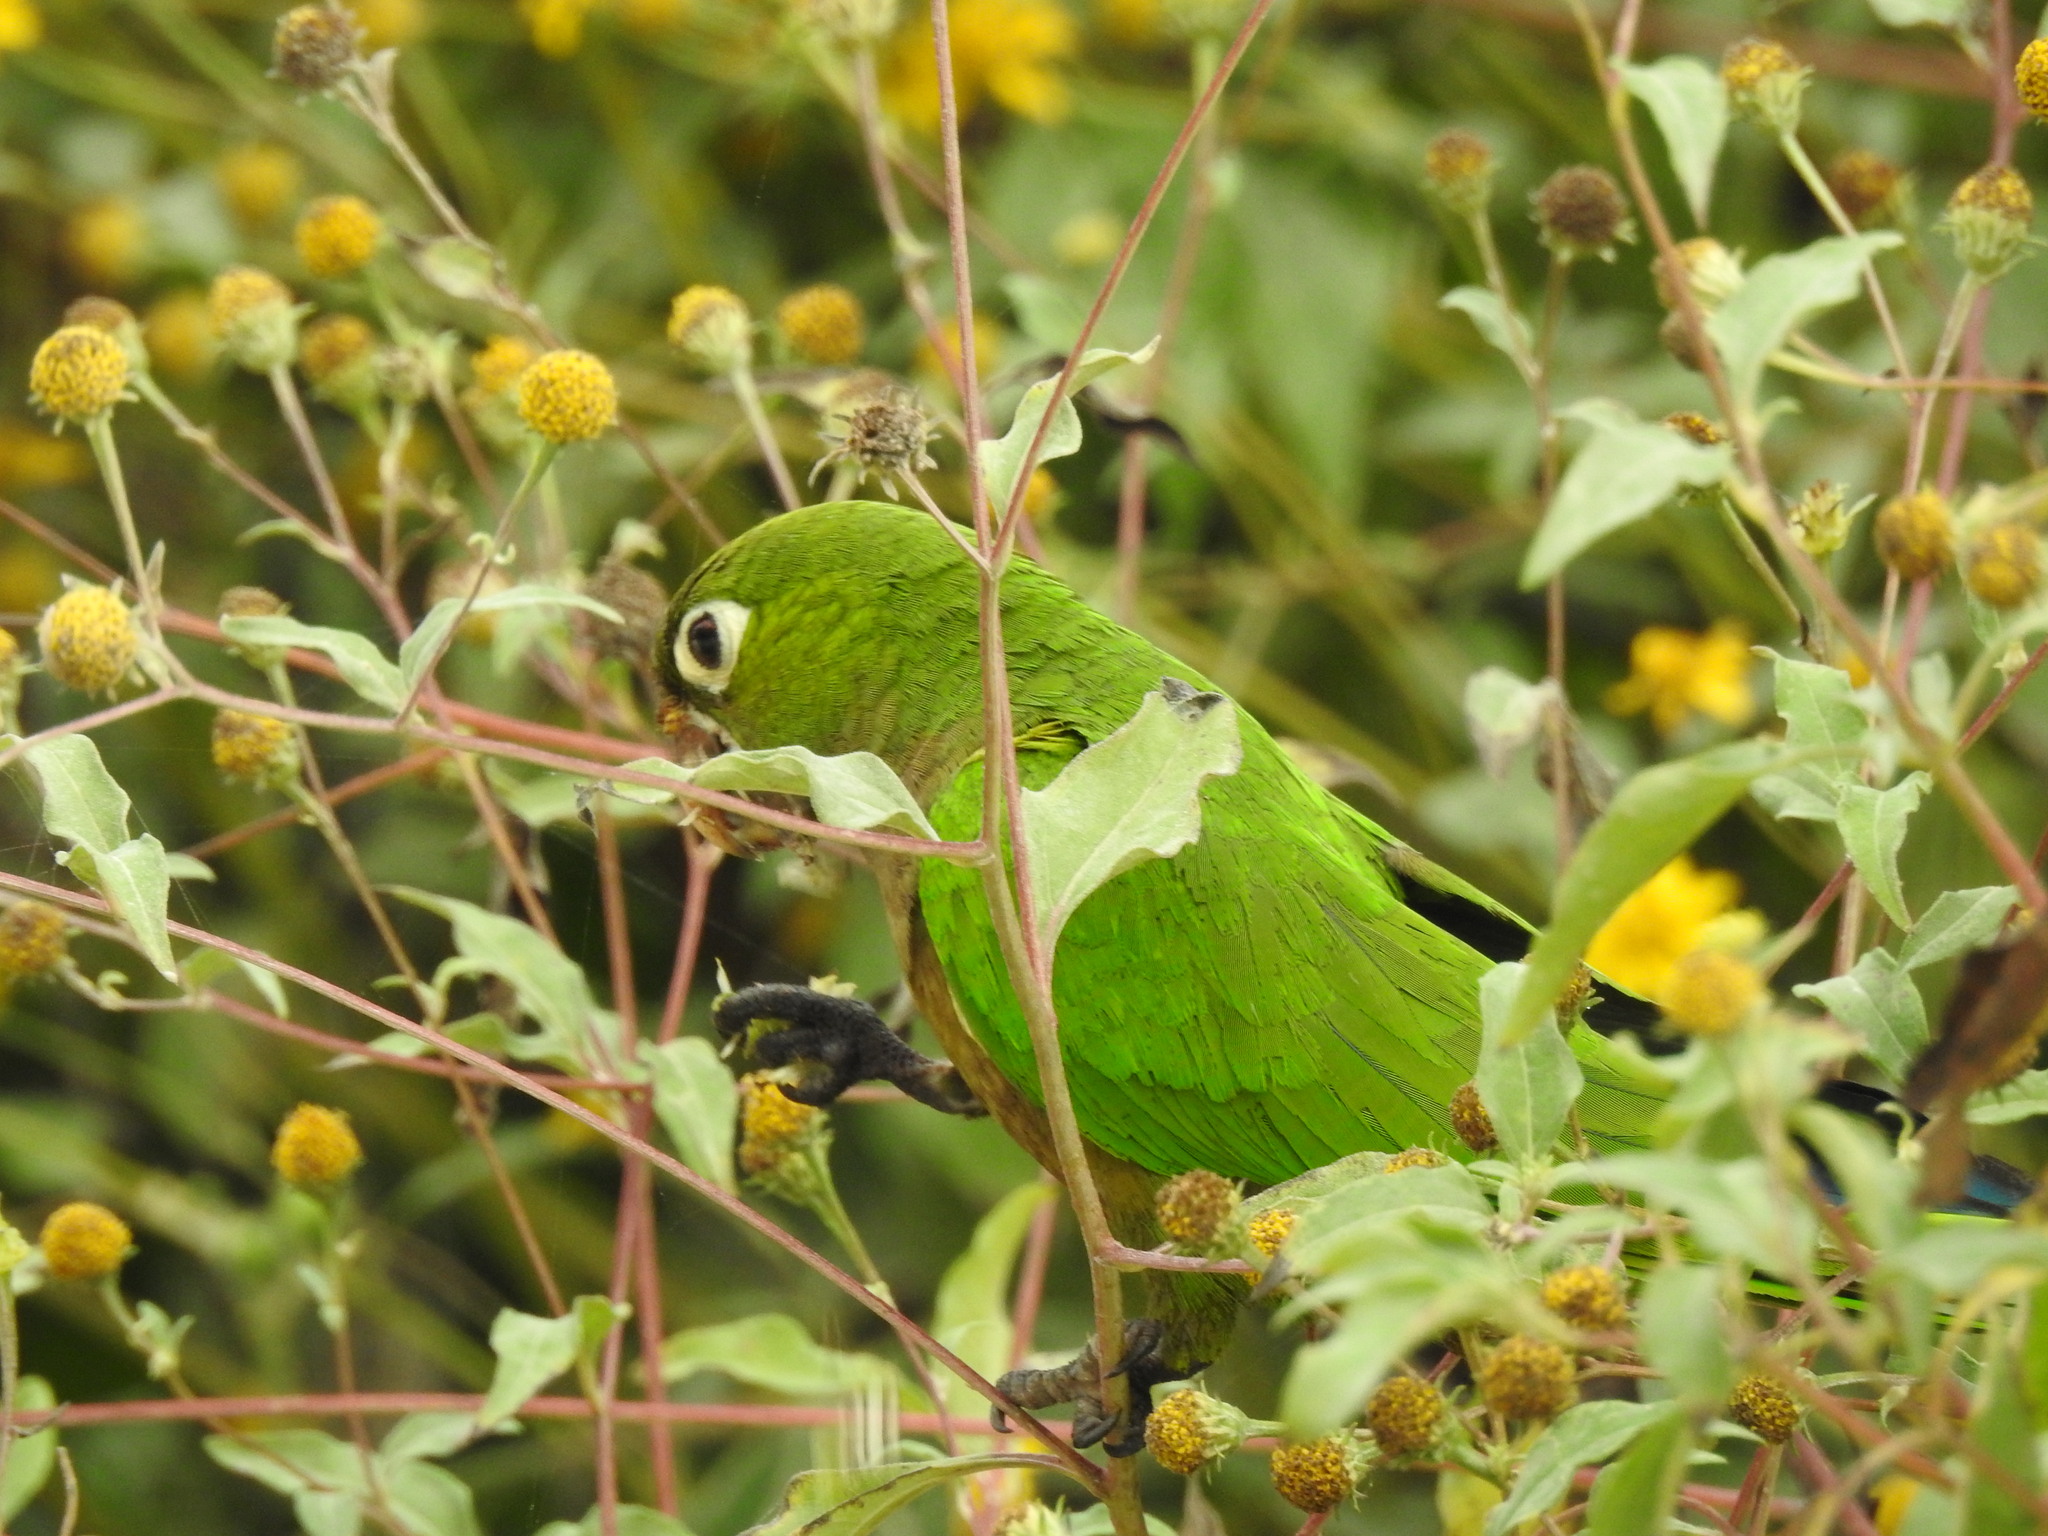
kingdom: Animalia
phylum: Chordata
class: Aves
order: Psittaciformes
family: Psittacidae
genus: Aratinga
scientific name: Aratinga nana
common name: Olive-throated parakeet
